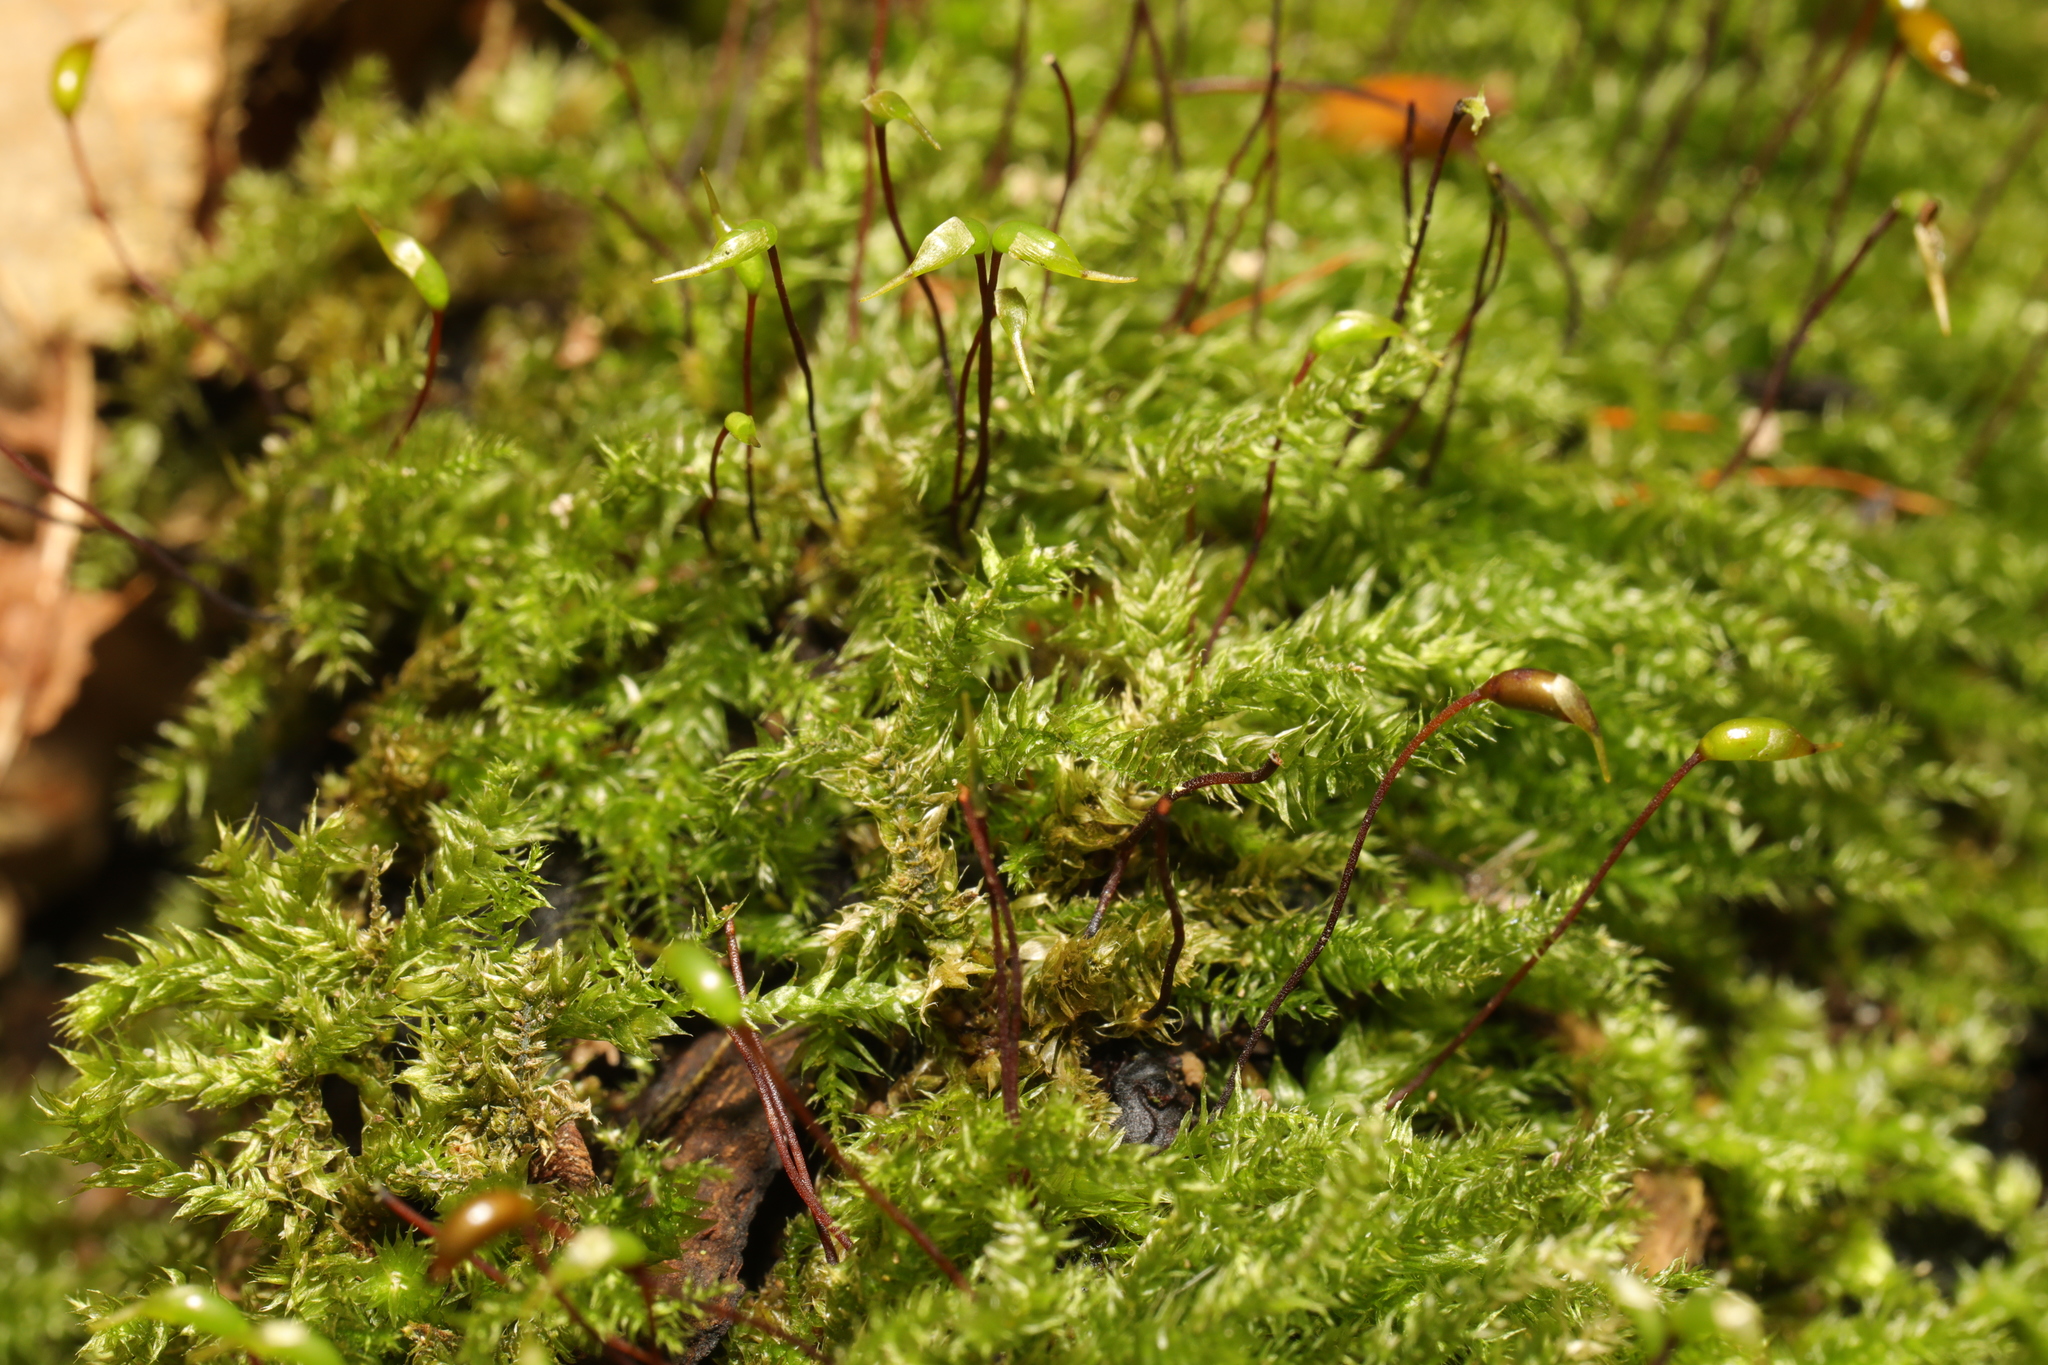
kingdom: Plantae
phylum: Bryophyta
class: Bryopsida
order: Hypnales
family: Brachytheciaceae
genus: Rhynchostegium
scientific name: Rhynchostegium confertum
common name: Clustered feather-moss
